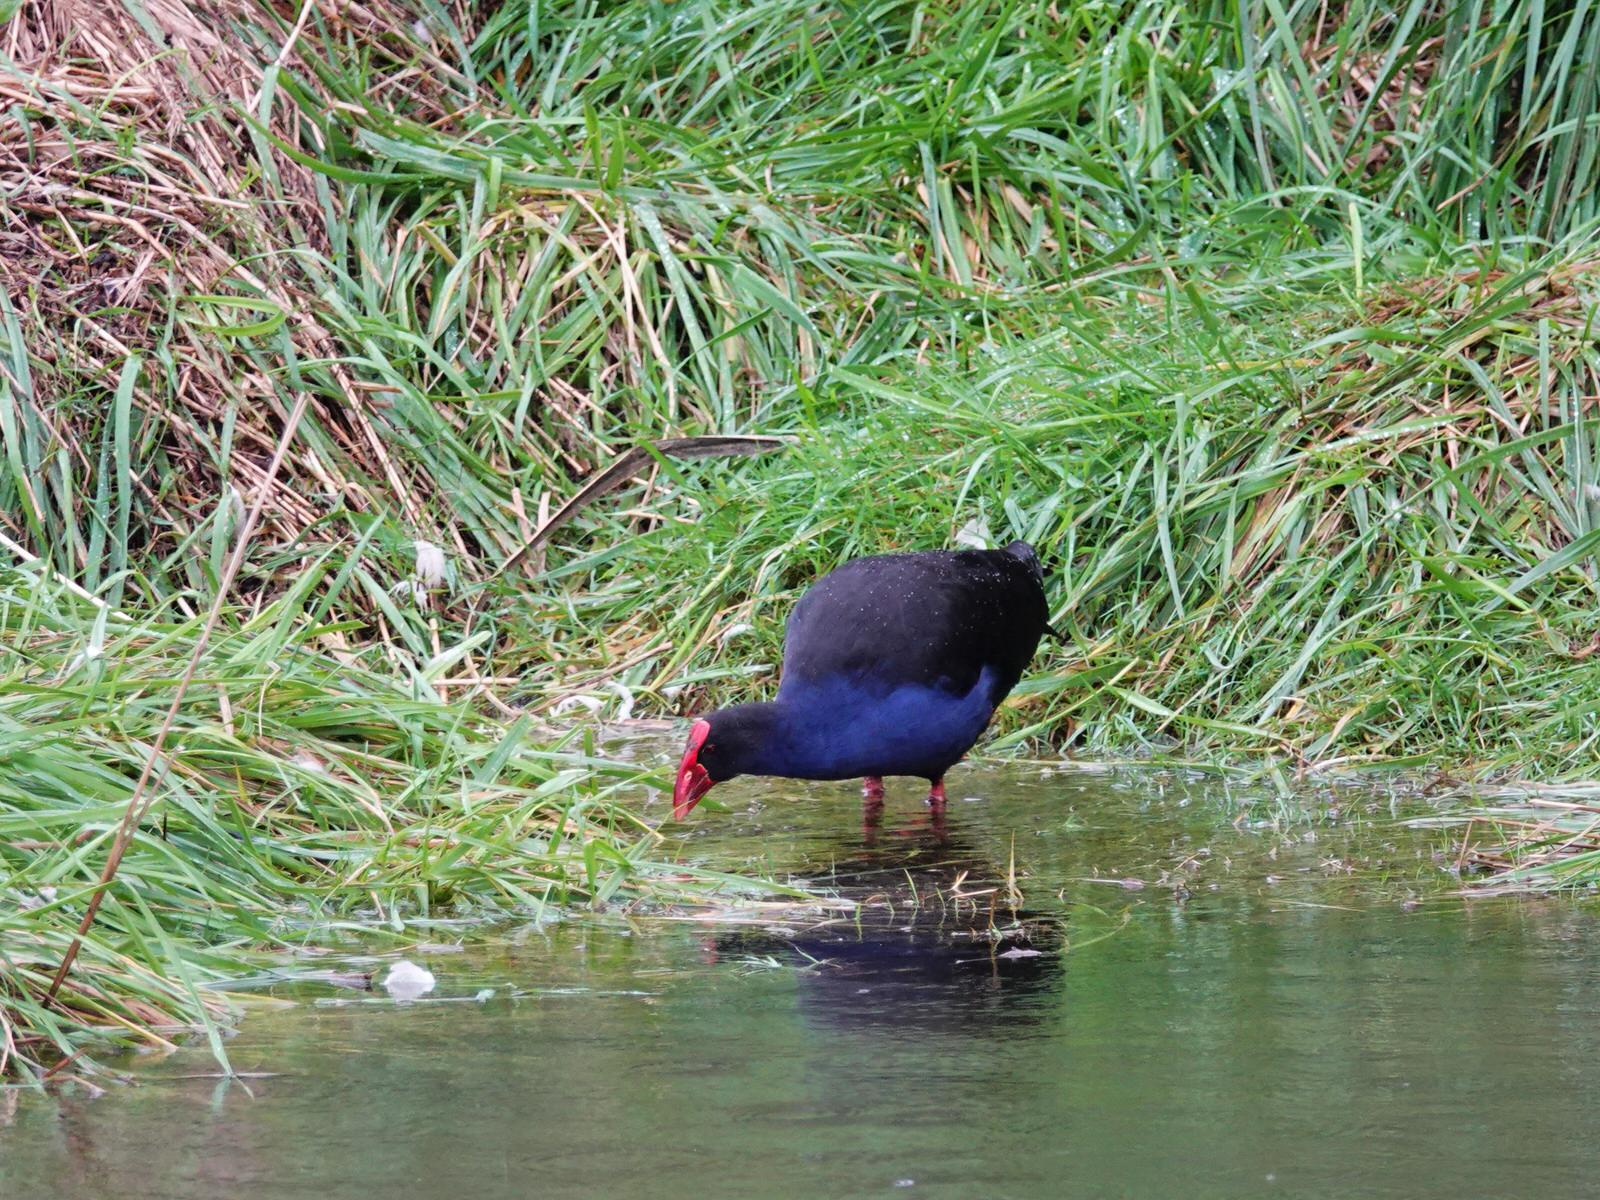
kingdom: Animalia
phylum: Chordata
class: Aves
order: Gruiformes
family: Rallidae
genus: Porphyrio
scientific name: Porphyrio melanotus
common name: Australasian swamphen
